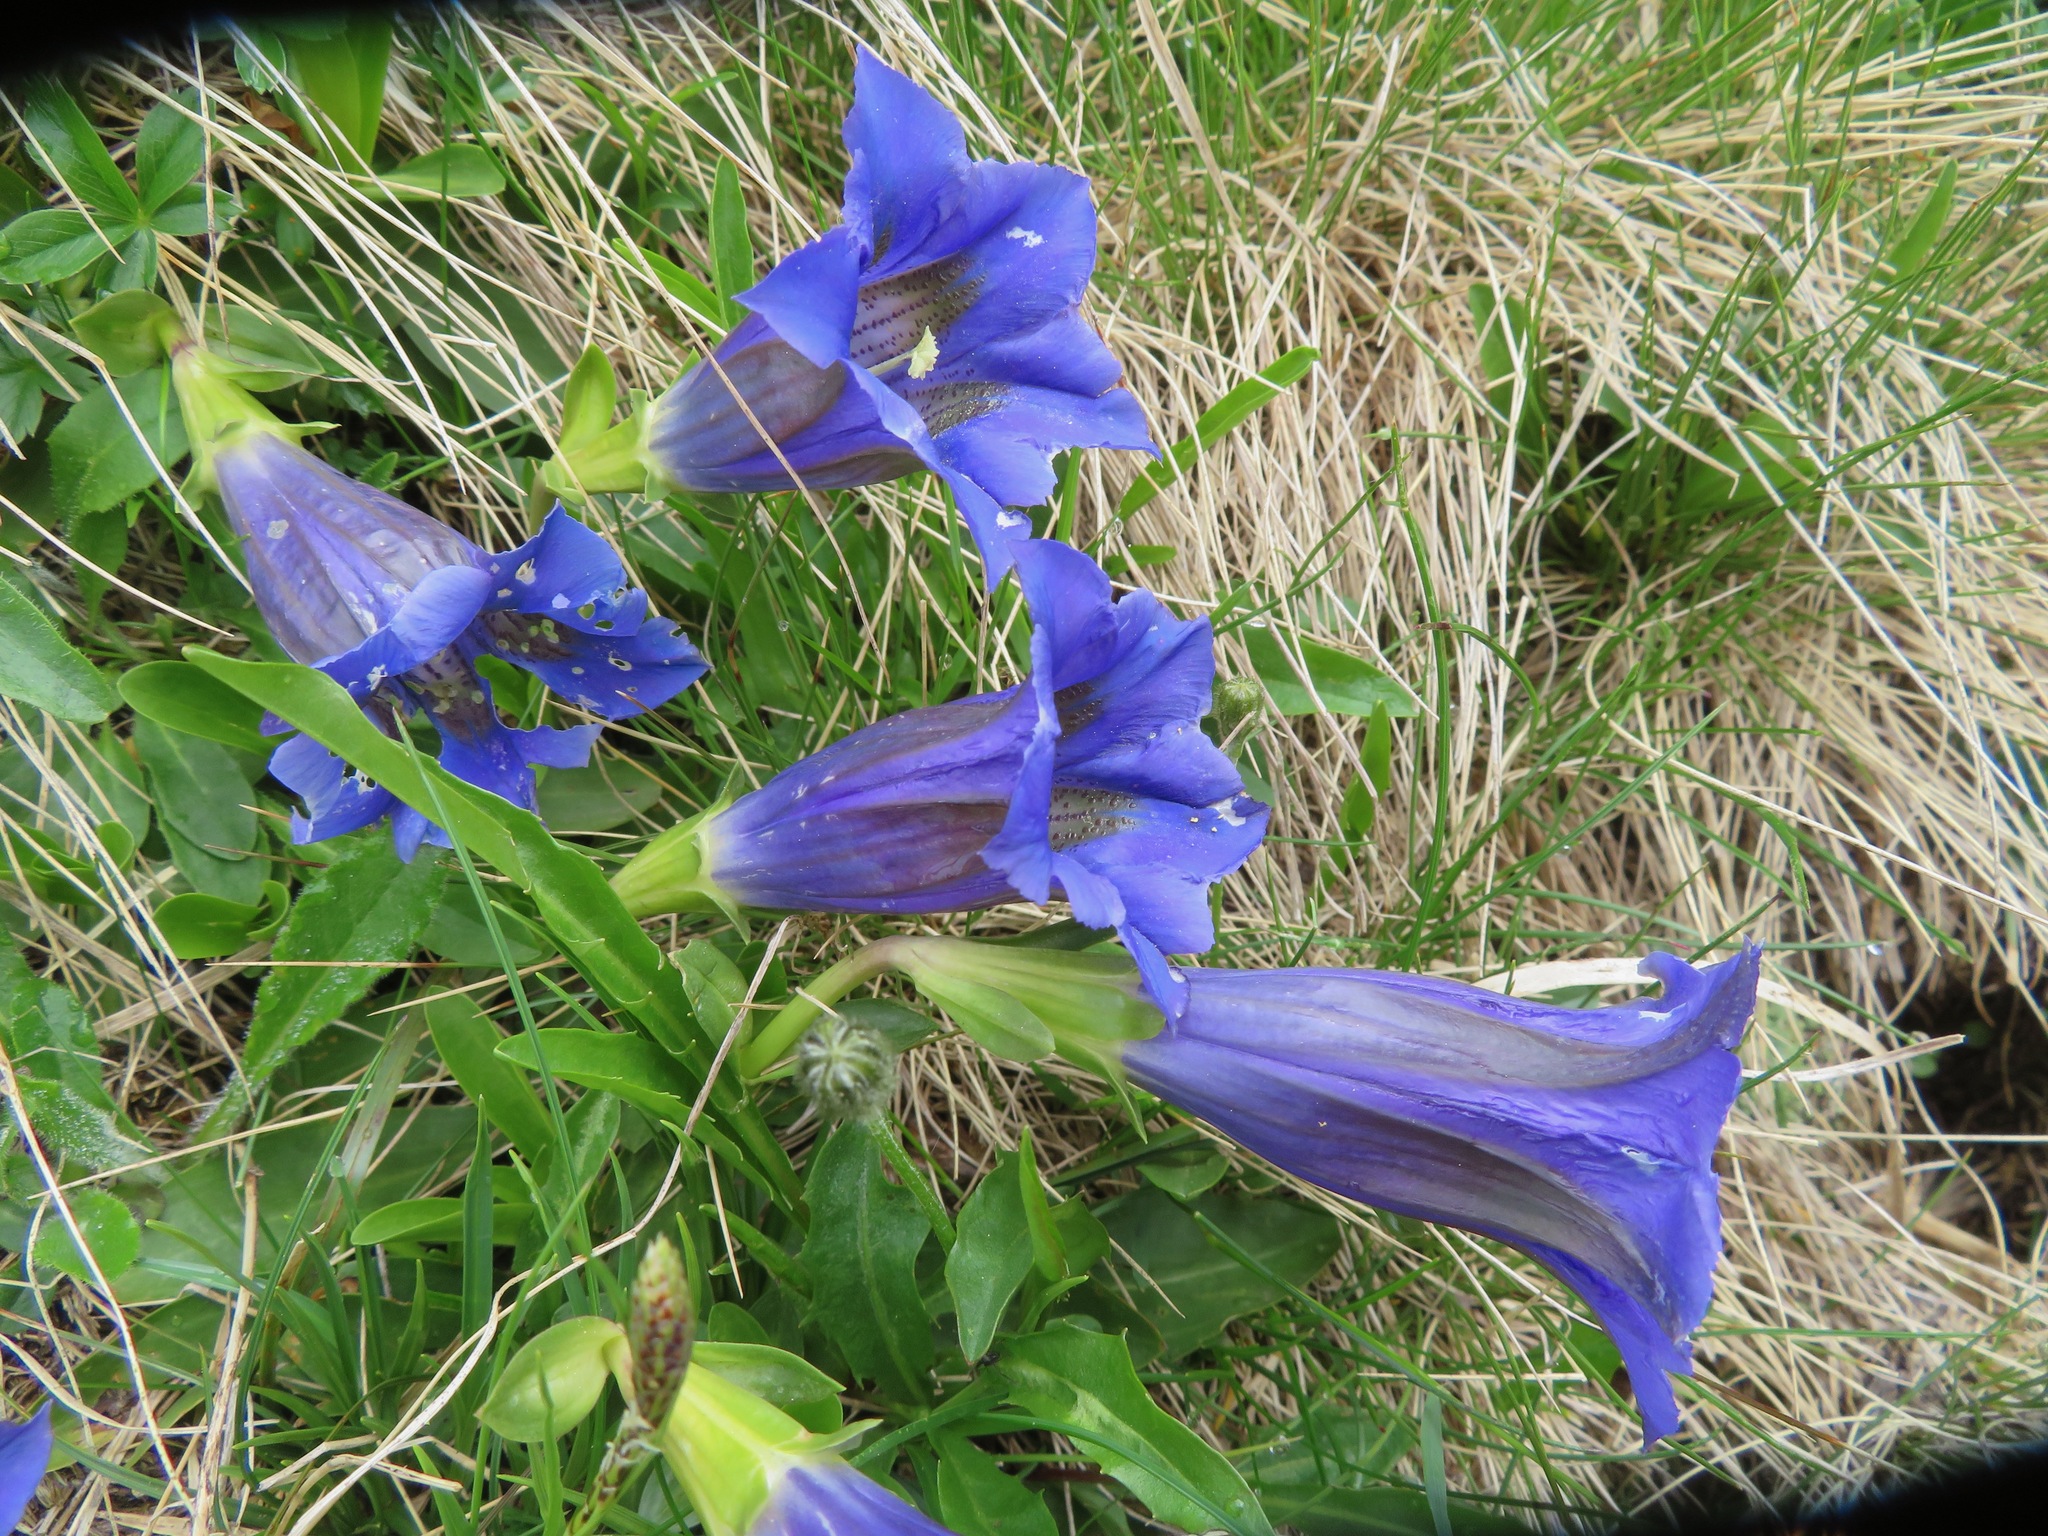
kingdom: Plantae
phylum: Tracheophyta
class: Magnoliopsida
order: Gentianales
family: Gentianaceae
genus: Gentiana
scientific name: Gentiana acaulis
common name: Trumpet gentian
